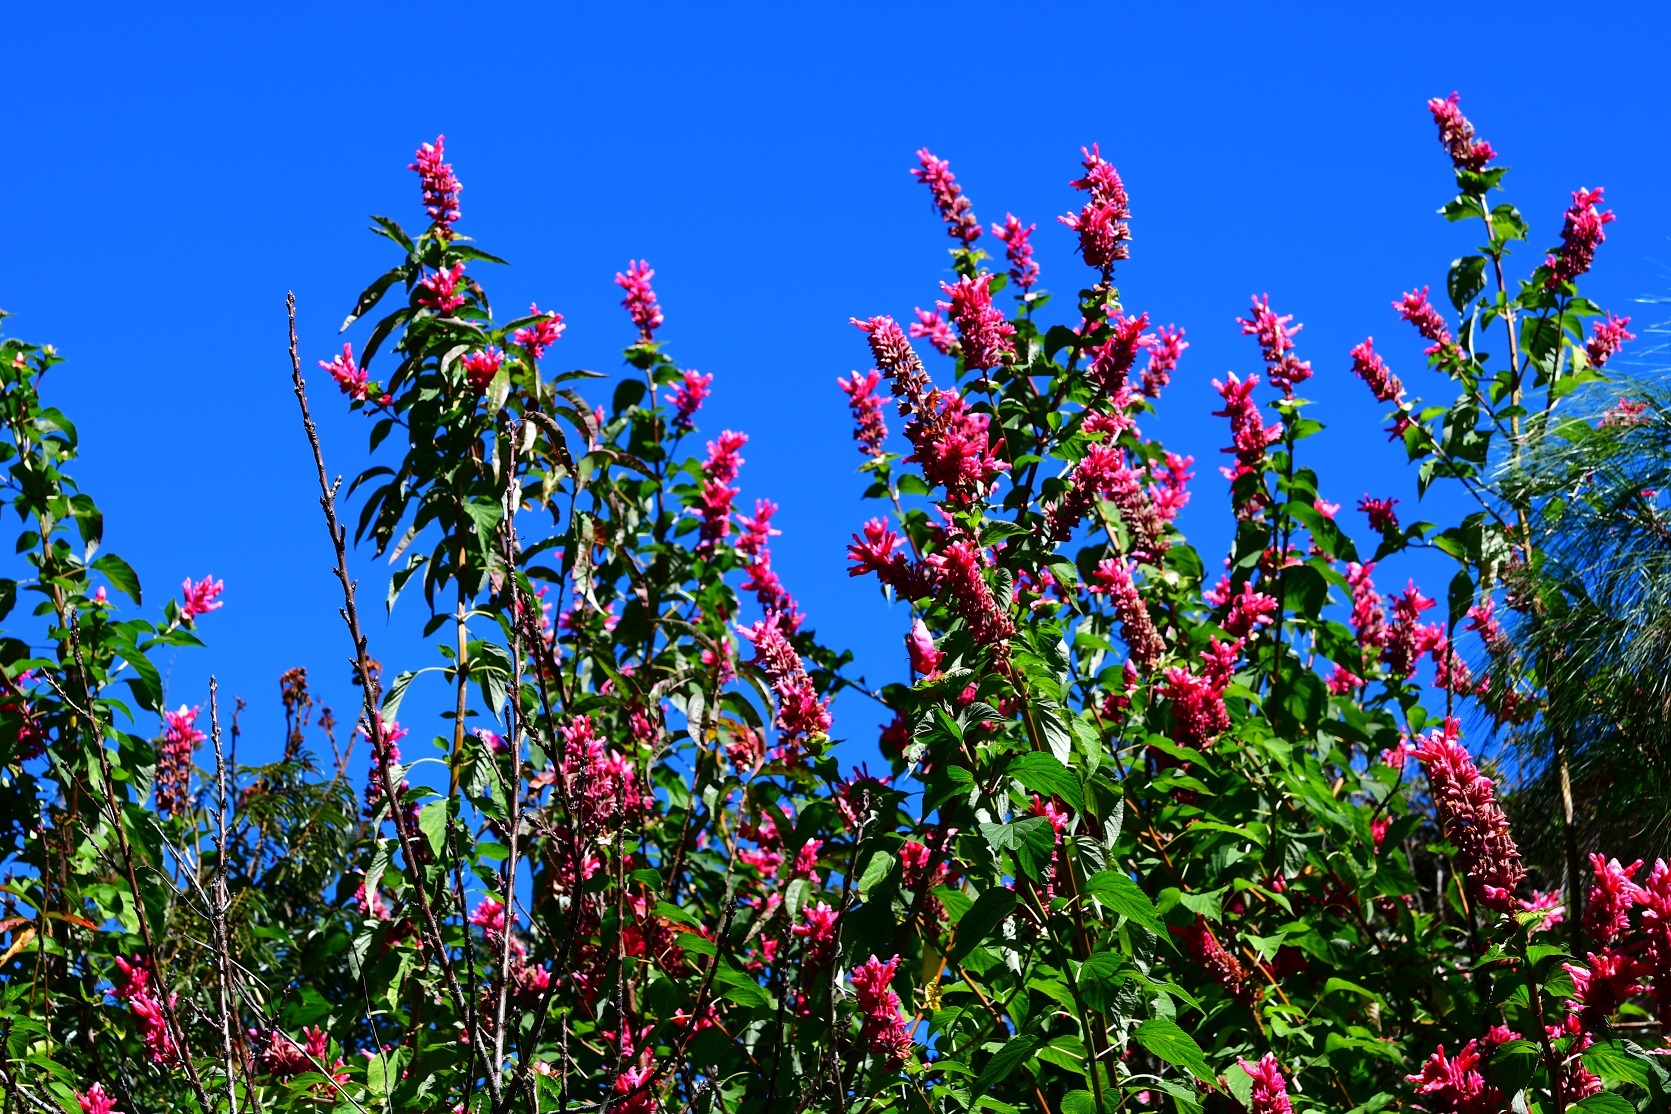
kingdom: Plantae
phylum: Tracheophyta
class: Magnoliopsida
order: Lamiales
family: Lamiaceae
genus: Salvia
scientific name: Salvia wagneriana
